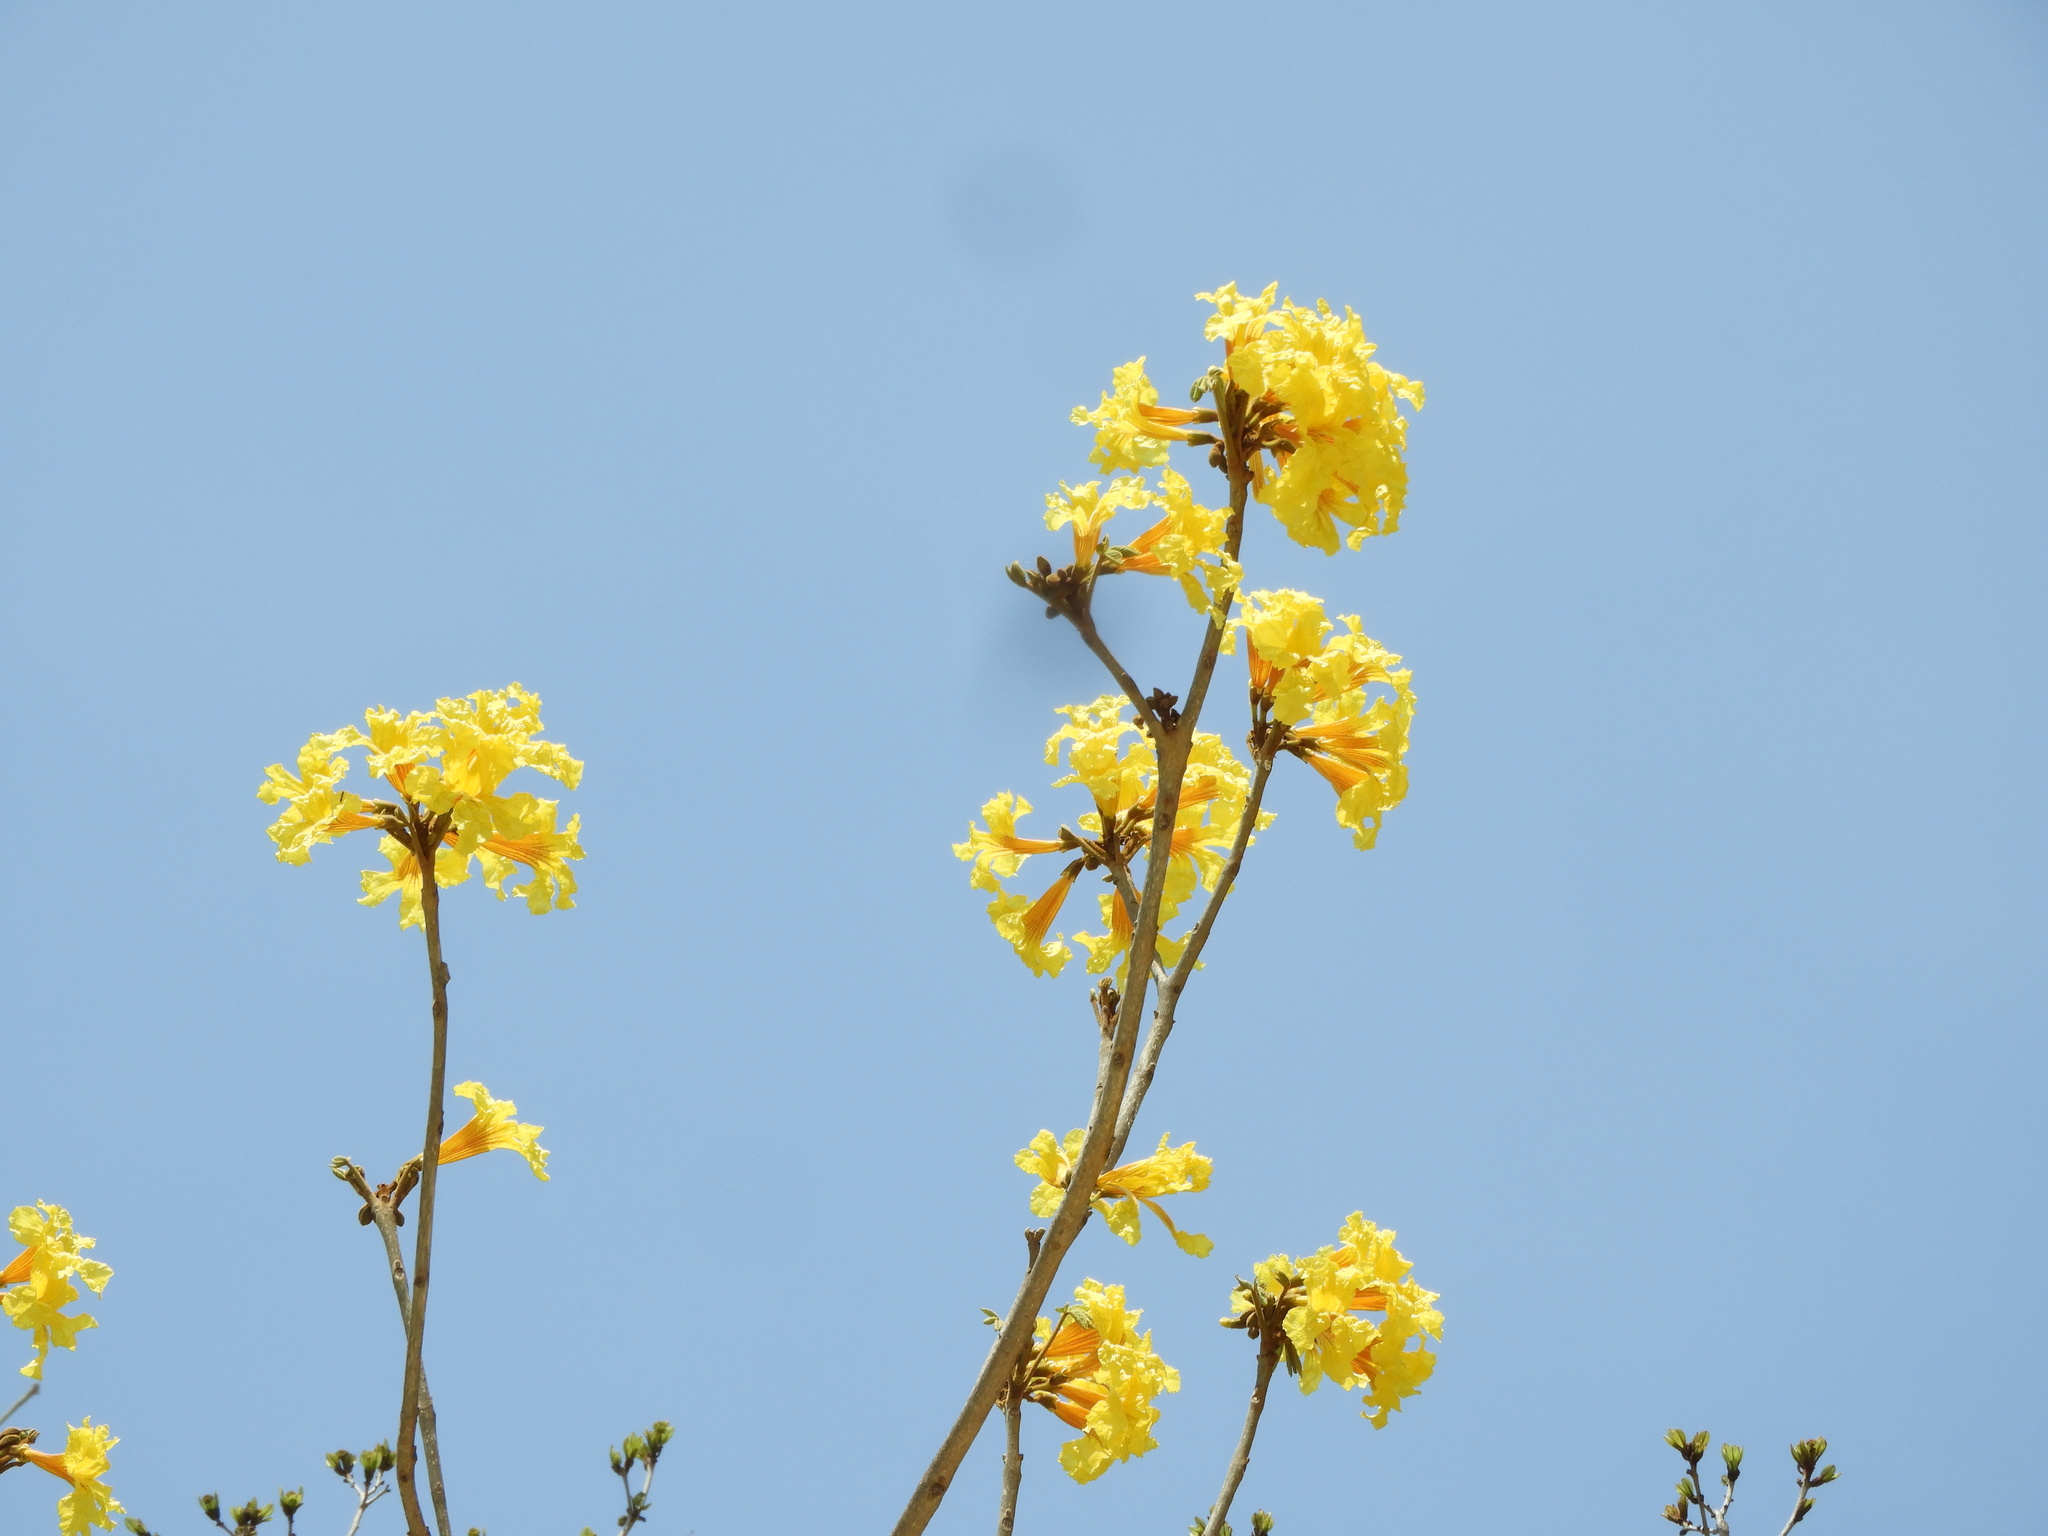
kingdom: Plantae
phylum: Tracheophyta
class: Magnoliopsida
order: Lamiales
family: Bignoniaceae
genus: Handroanthus
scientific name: Handroanthus chrysanthus
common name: Trumpet trees
